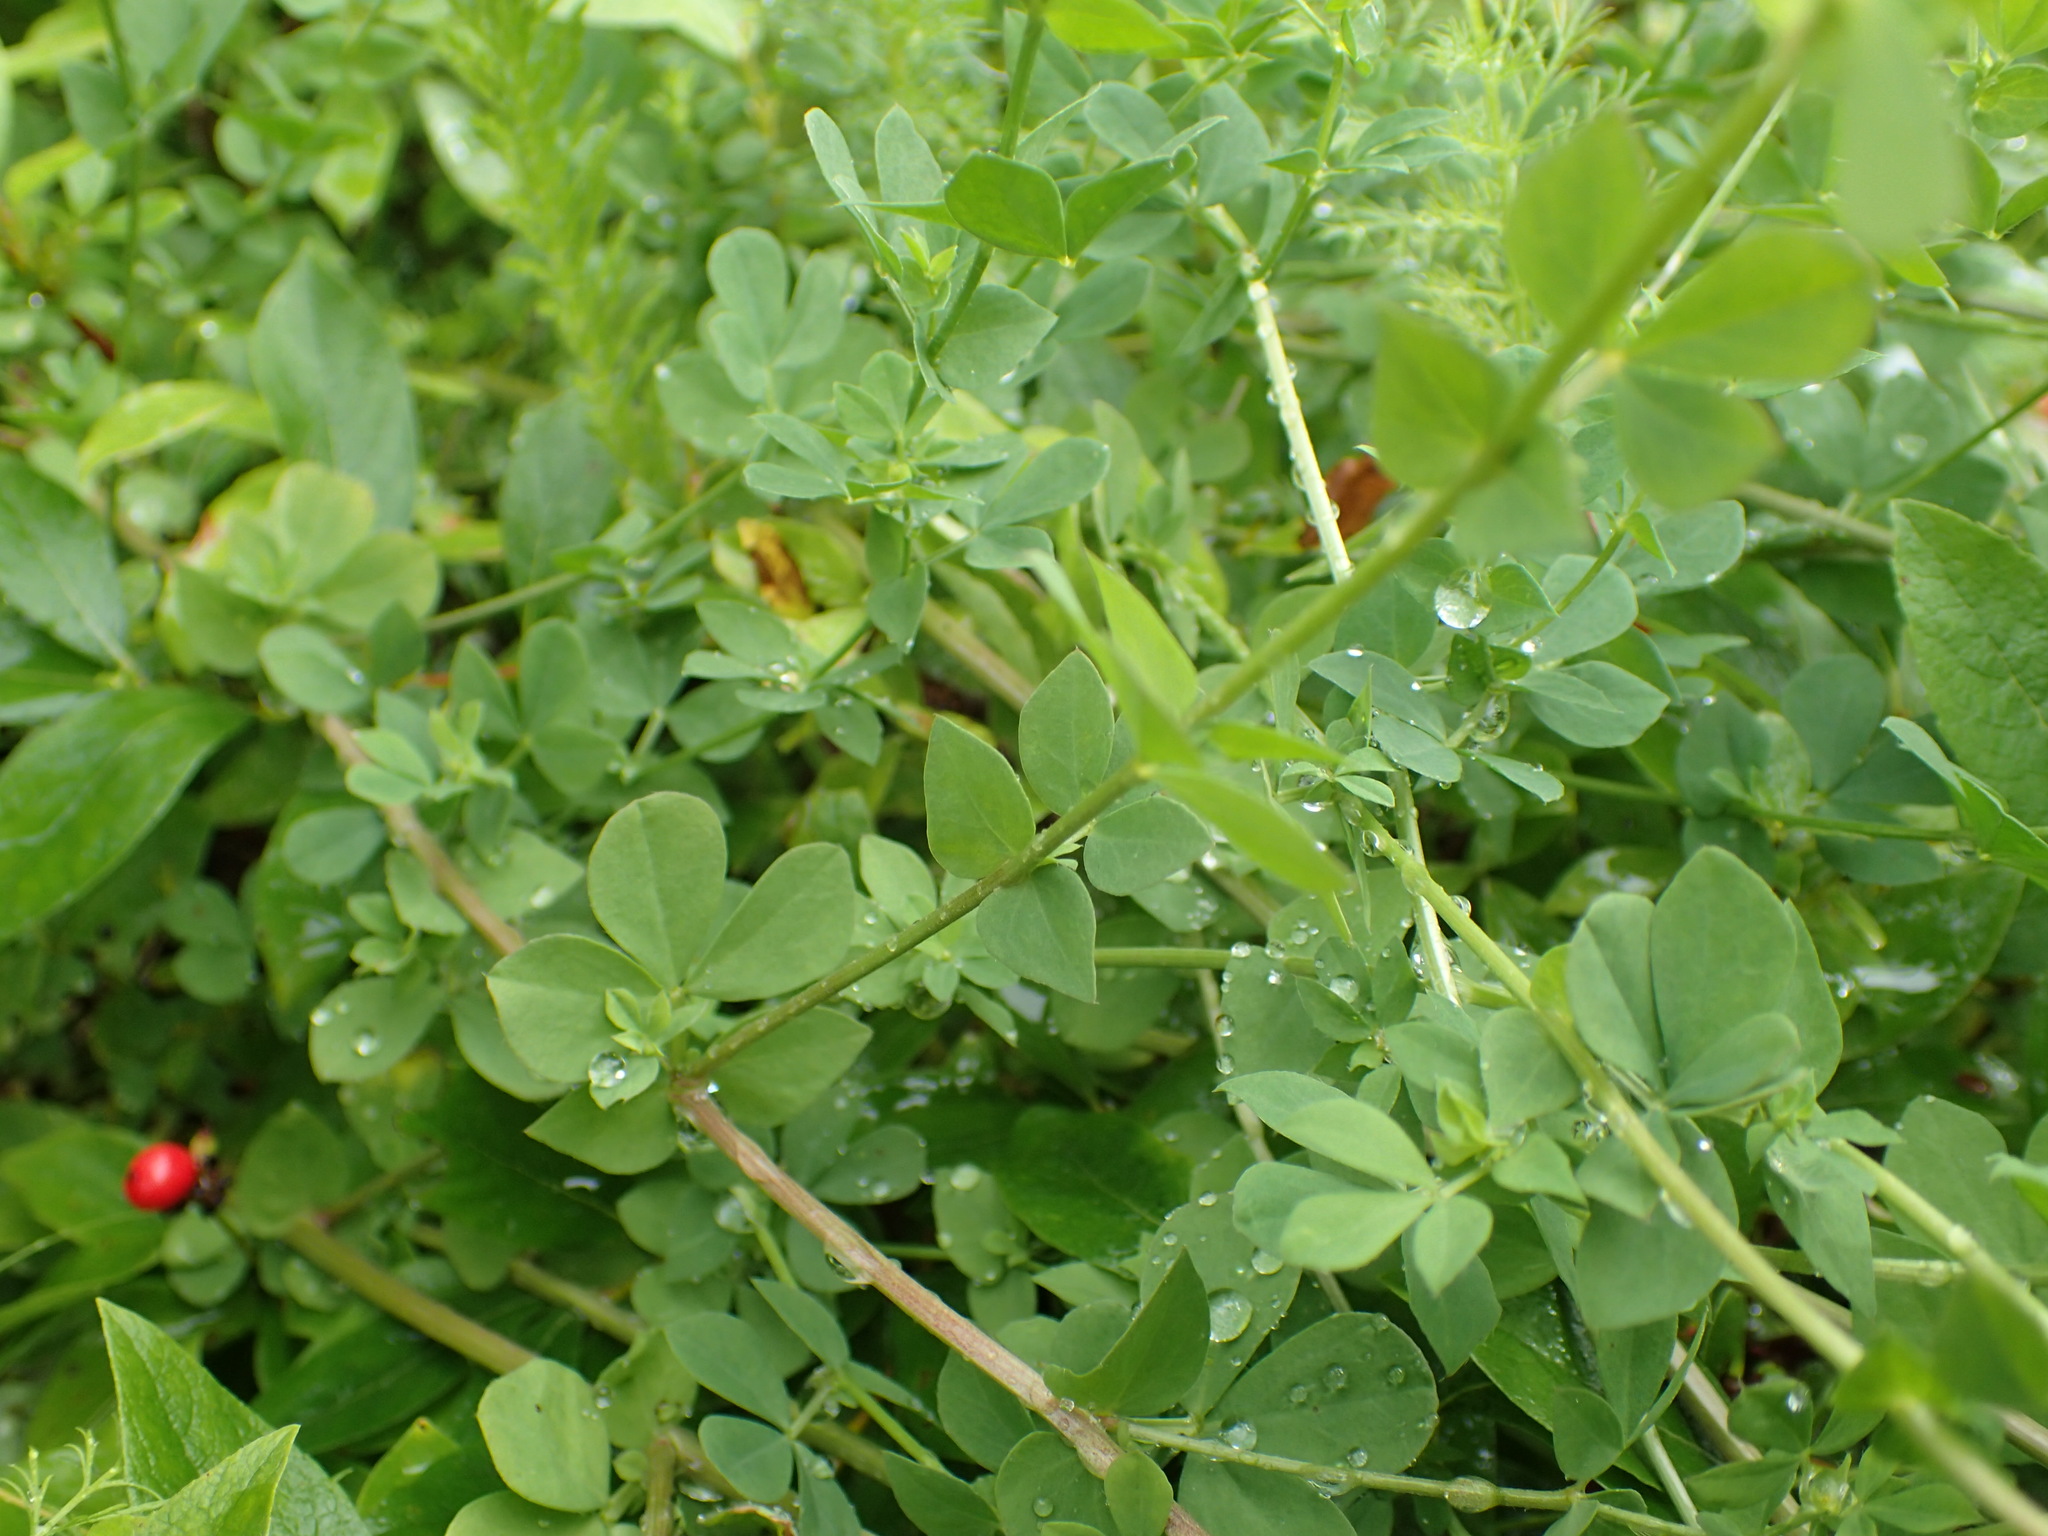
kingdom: Plantae
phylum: Tracheophyta
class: Magnoliopsida
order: Fabales
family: Fabaceae
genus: Lotus
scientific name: Lotus corniculatus
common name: Common bird's-foot-trefoil
